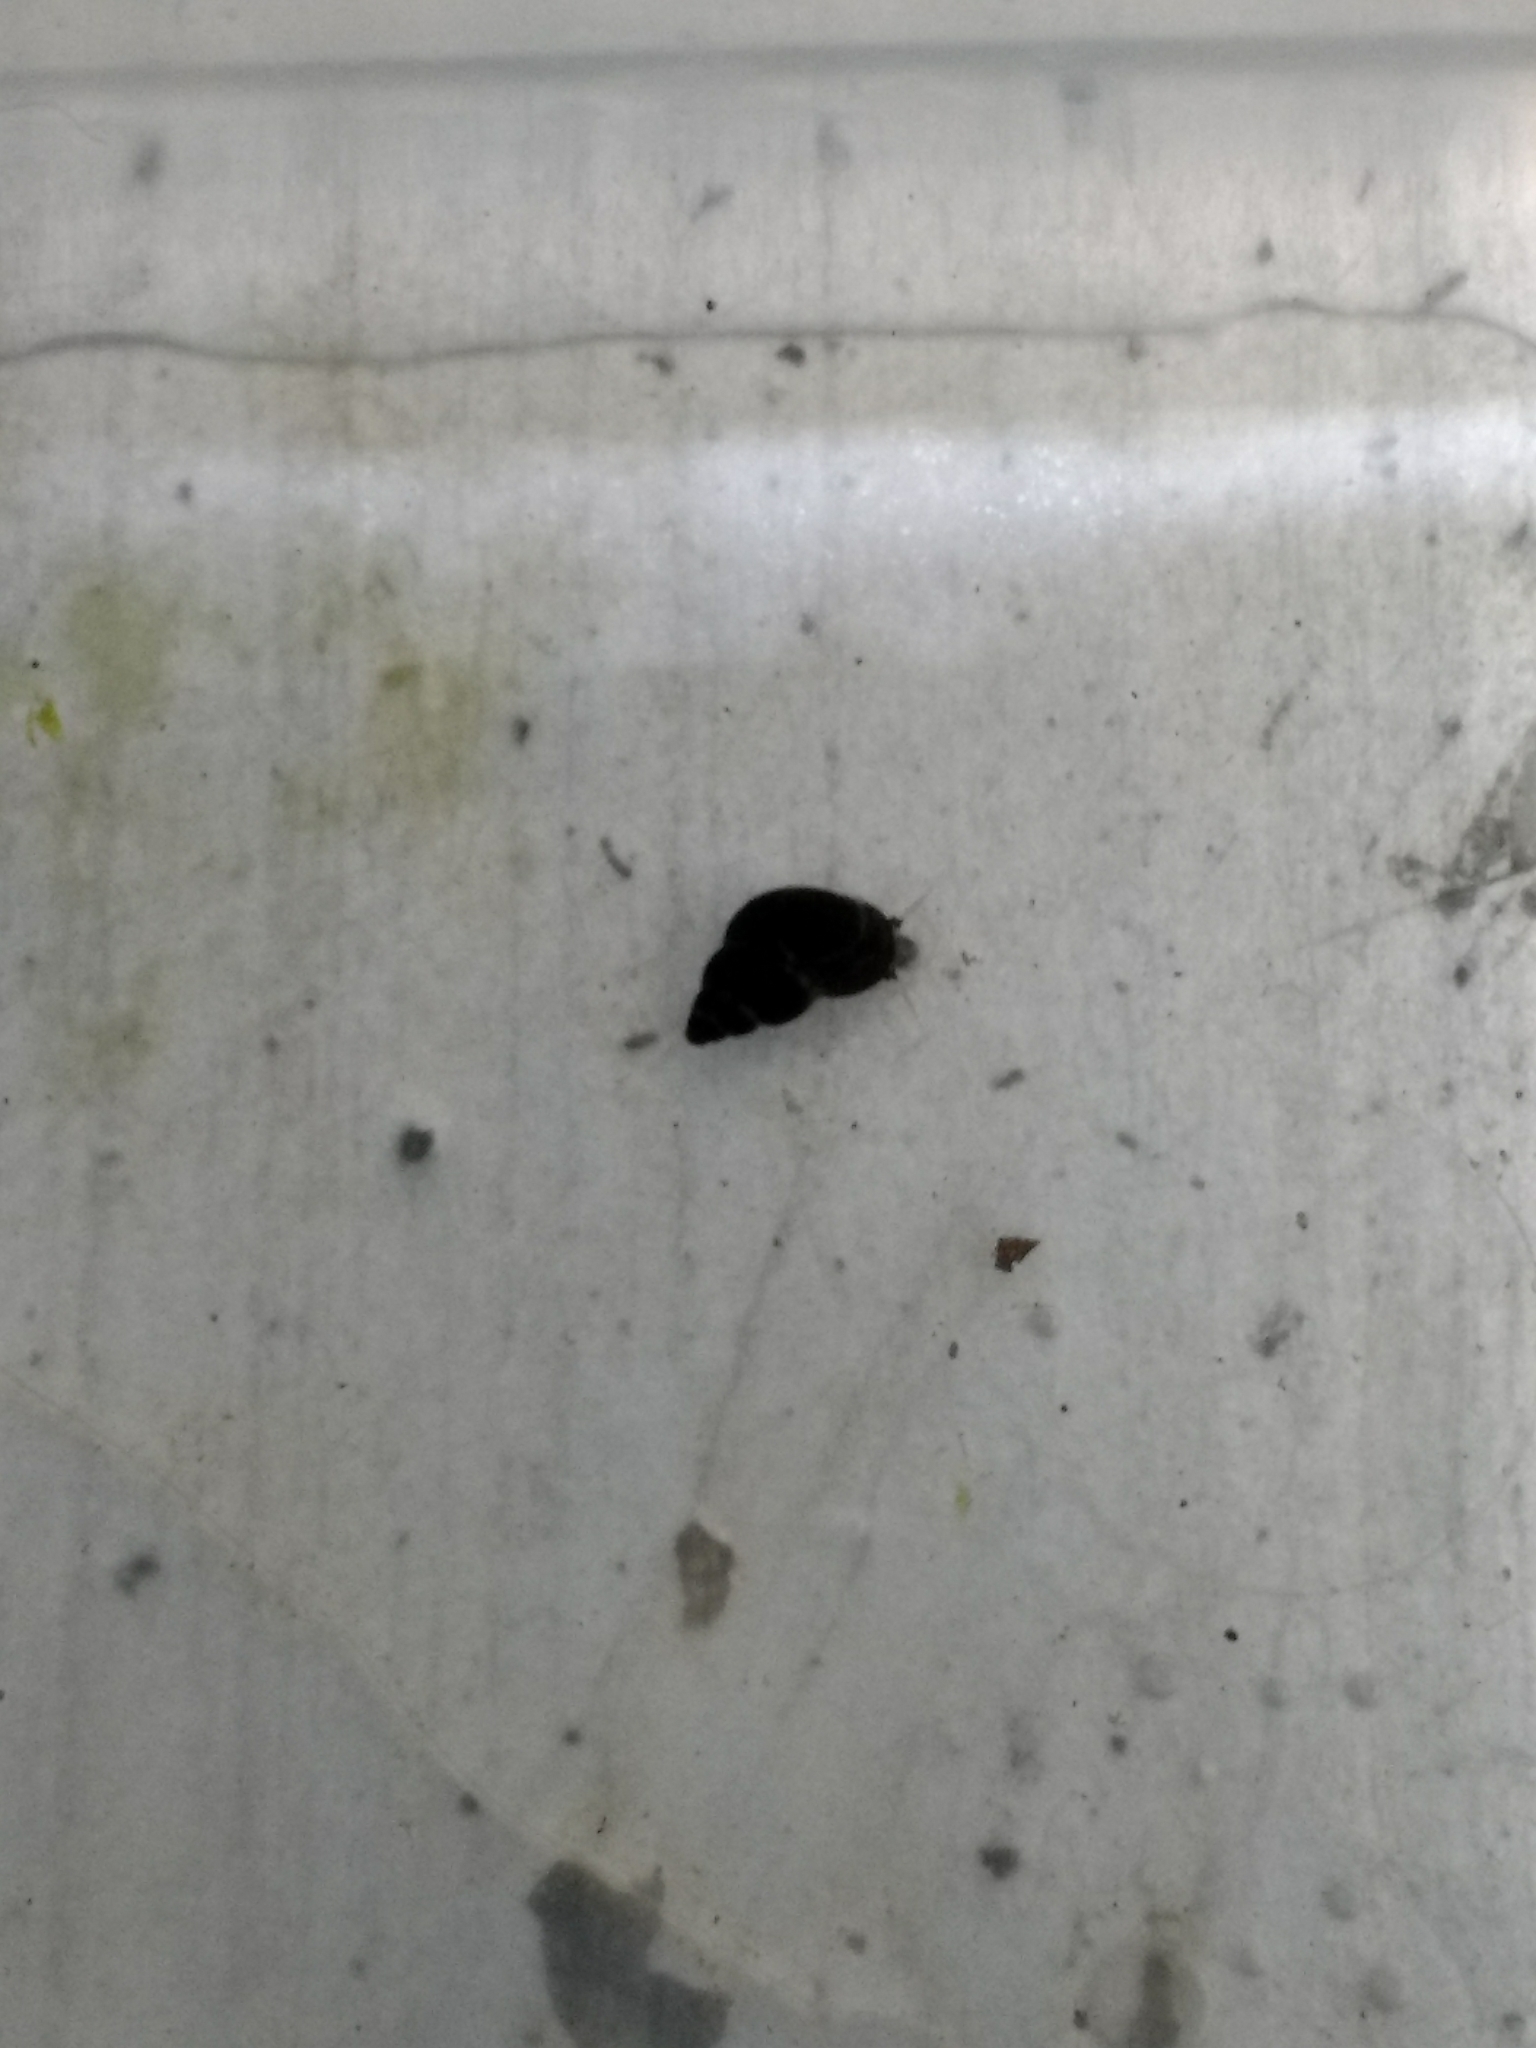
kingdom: Animalia
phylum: Mollusca
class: Gastropoda
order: Littorinimorpha
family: Tateidae
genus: Potamopyrgus
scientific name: Potamopyrgus antipodarum
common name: Jenkins' spire snail
